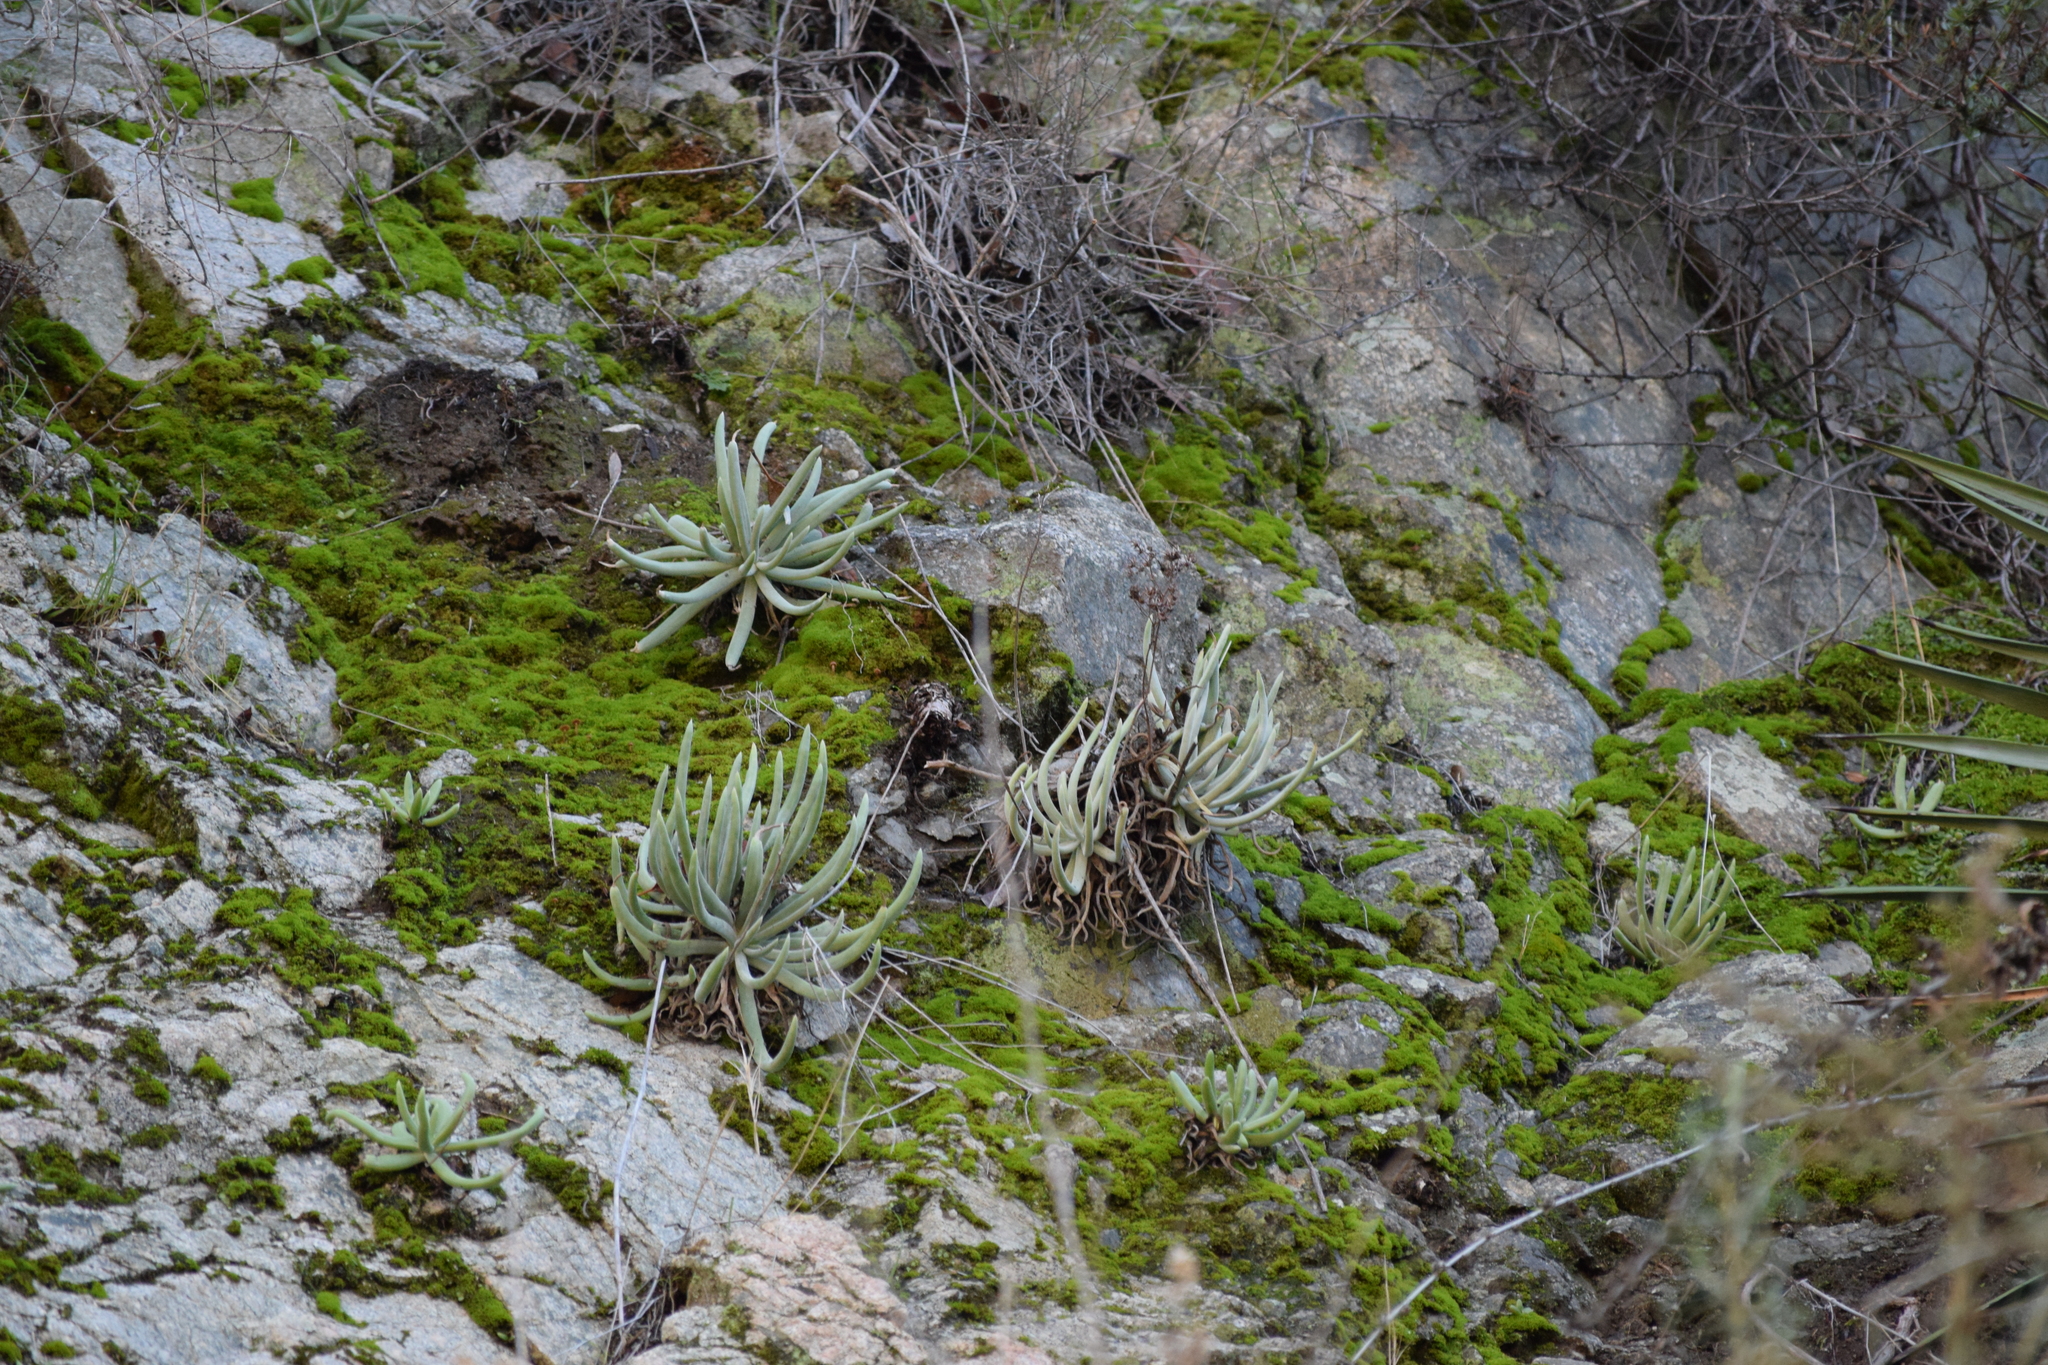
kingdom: Plantae
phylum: Tracheophyta
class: Magnoliopsida
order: Saxifragales
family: Crassulaceae
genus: Dudleya
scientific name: Dudleya densiflora
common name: San gabriel mountains dudleya
